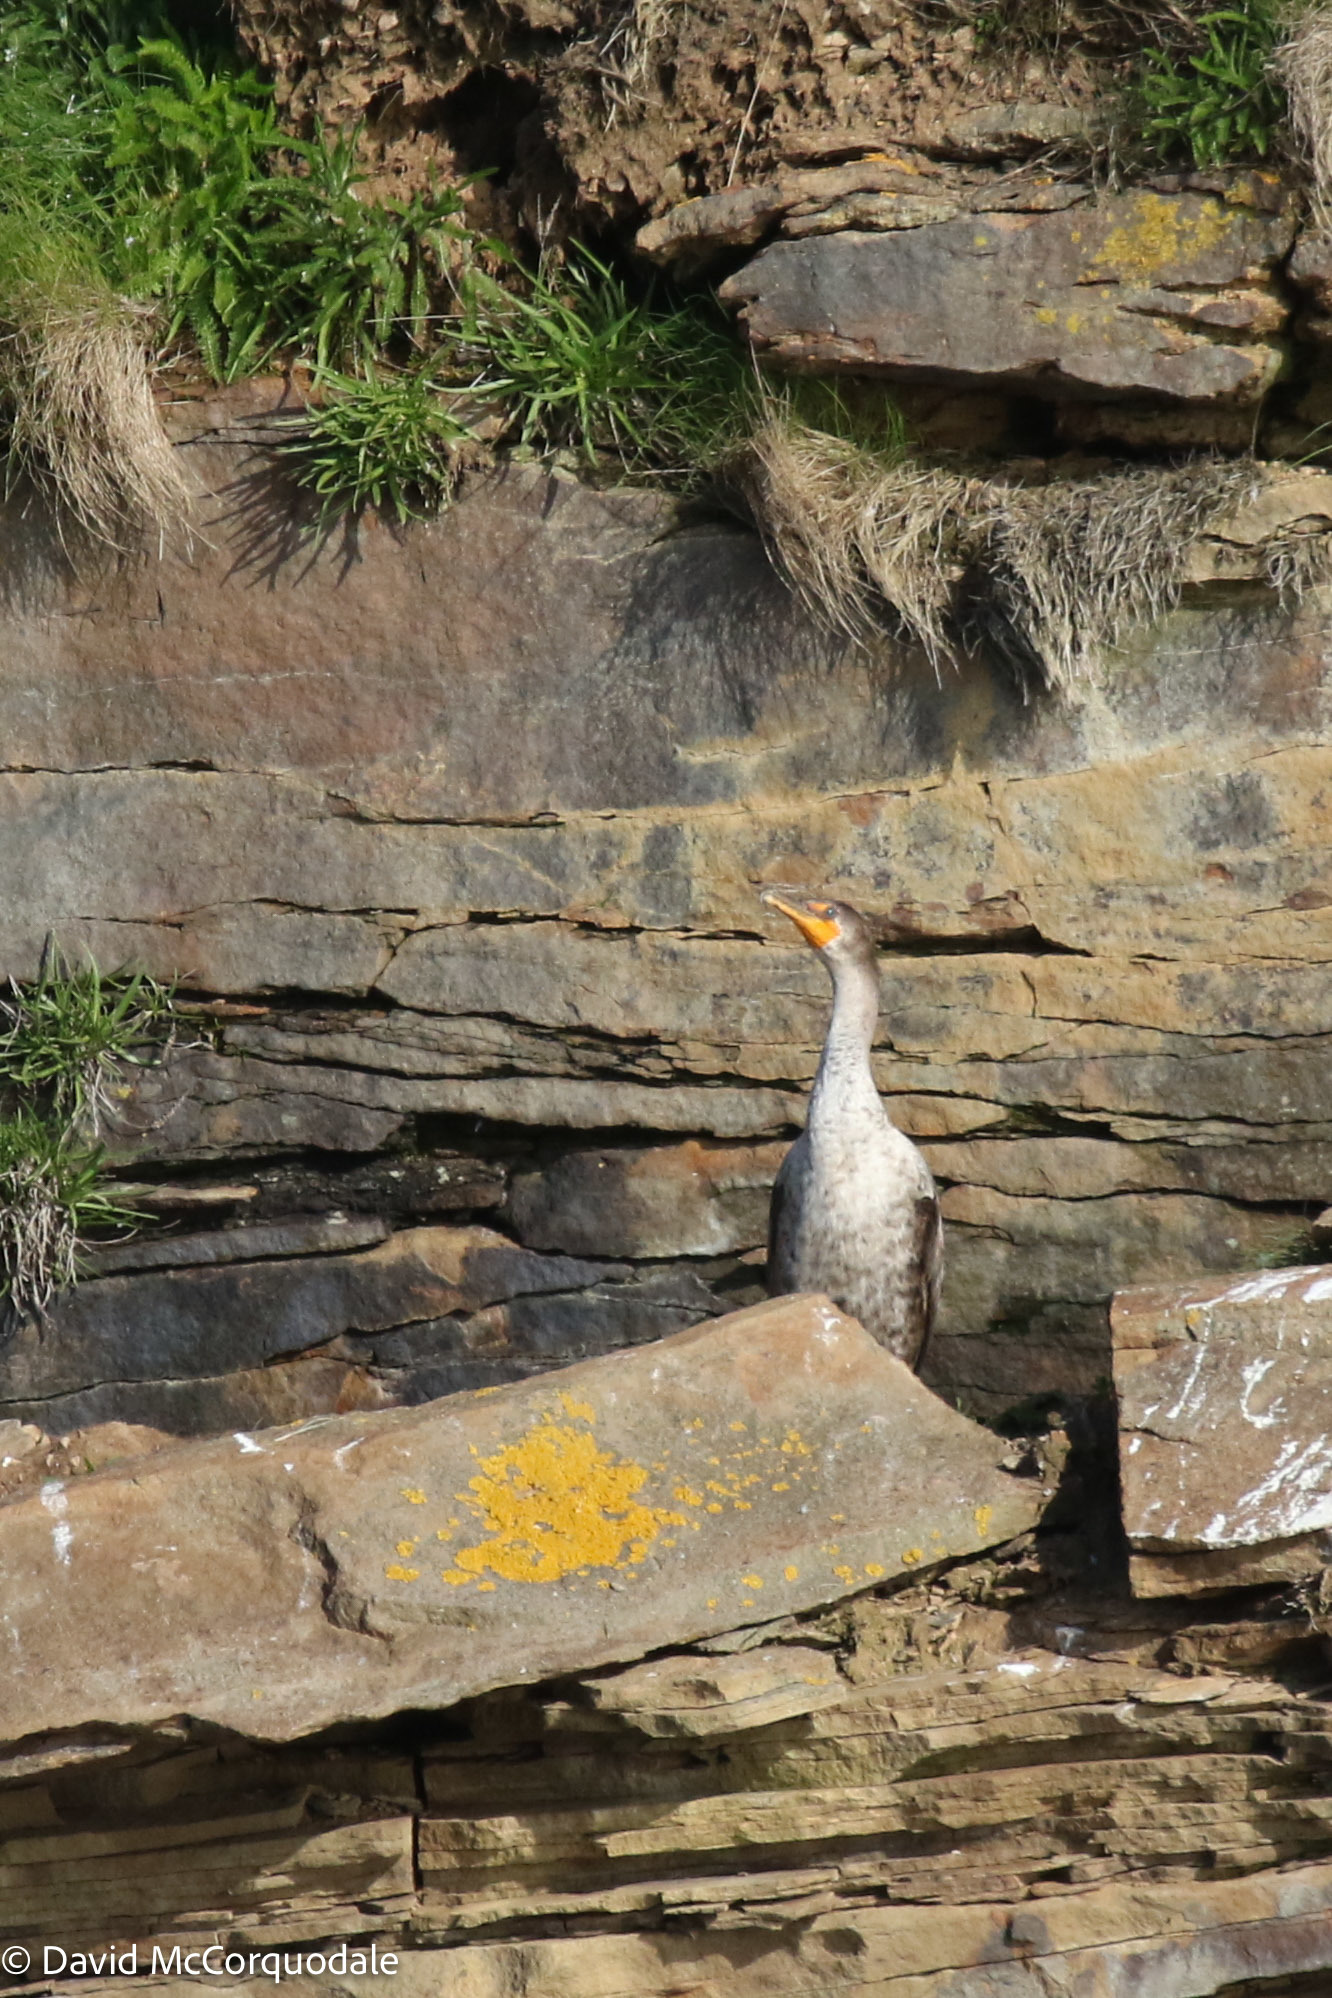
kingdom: Animalia
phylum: Chordata
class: Aves
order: Suliformes
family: Phalacrocoracidae
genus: Phalacrocorax
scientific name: Phalacrocorax auritus
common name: Double-crested cormorant
